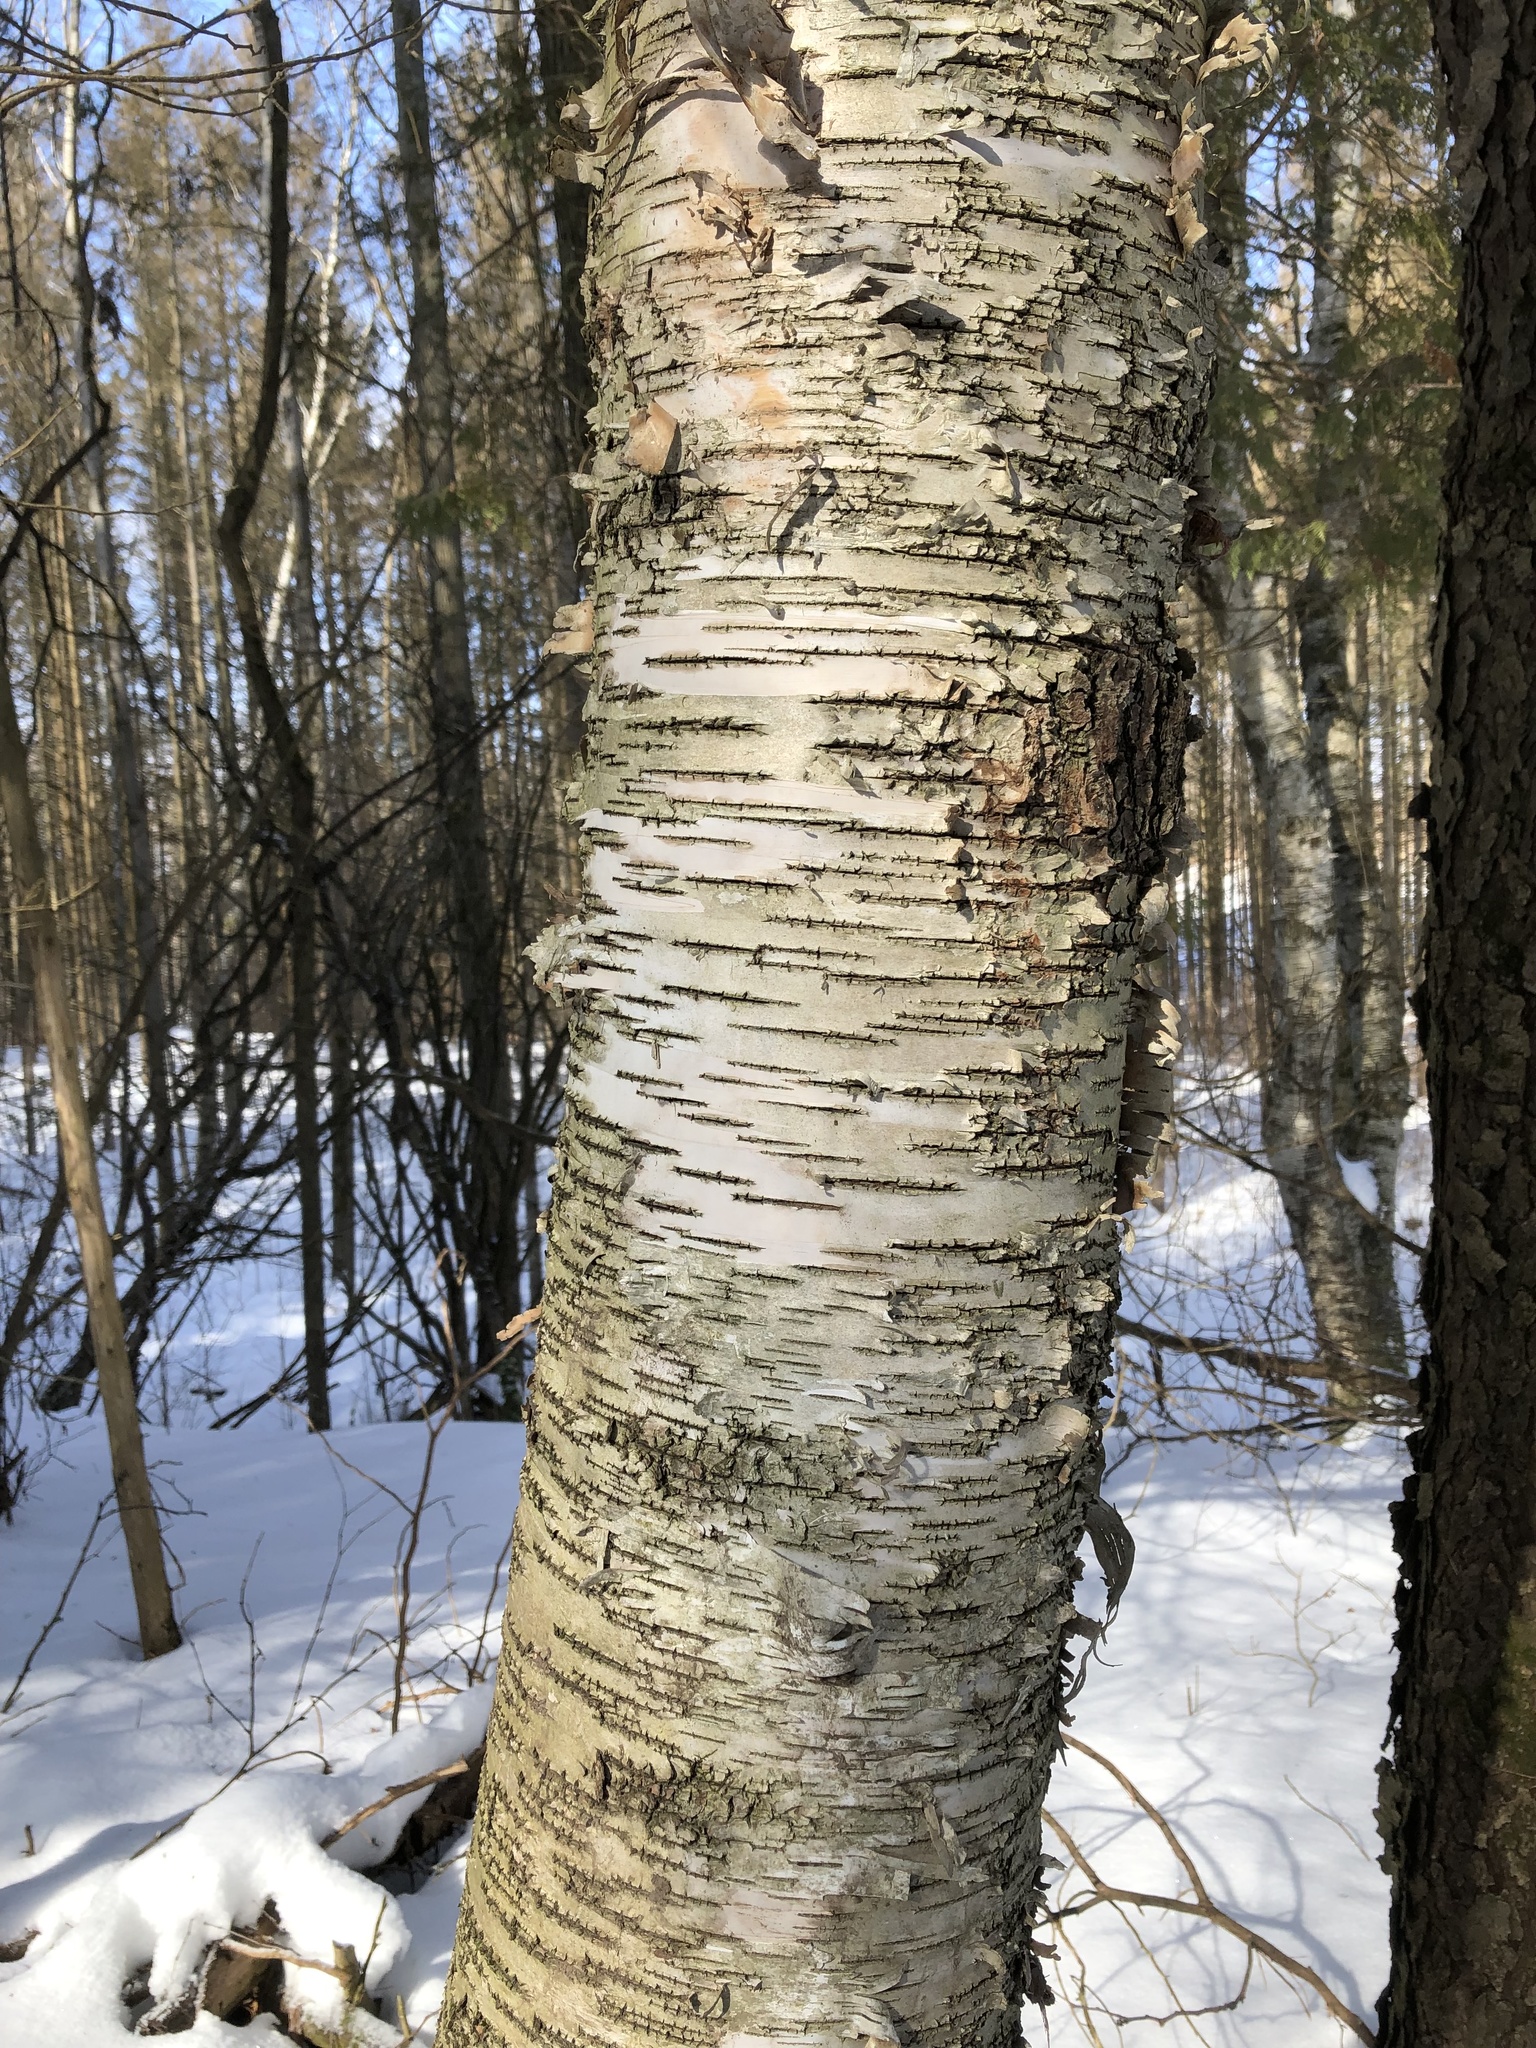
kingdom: Plantae
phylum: Tracheophyta
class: Magnoliopsida
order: Fagales
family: Betulaceae
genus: Betula
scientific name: Betula alleghaniensis
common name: Yellow birch
